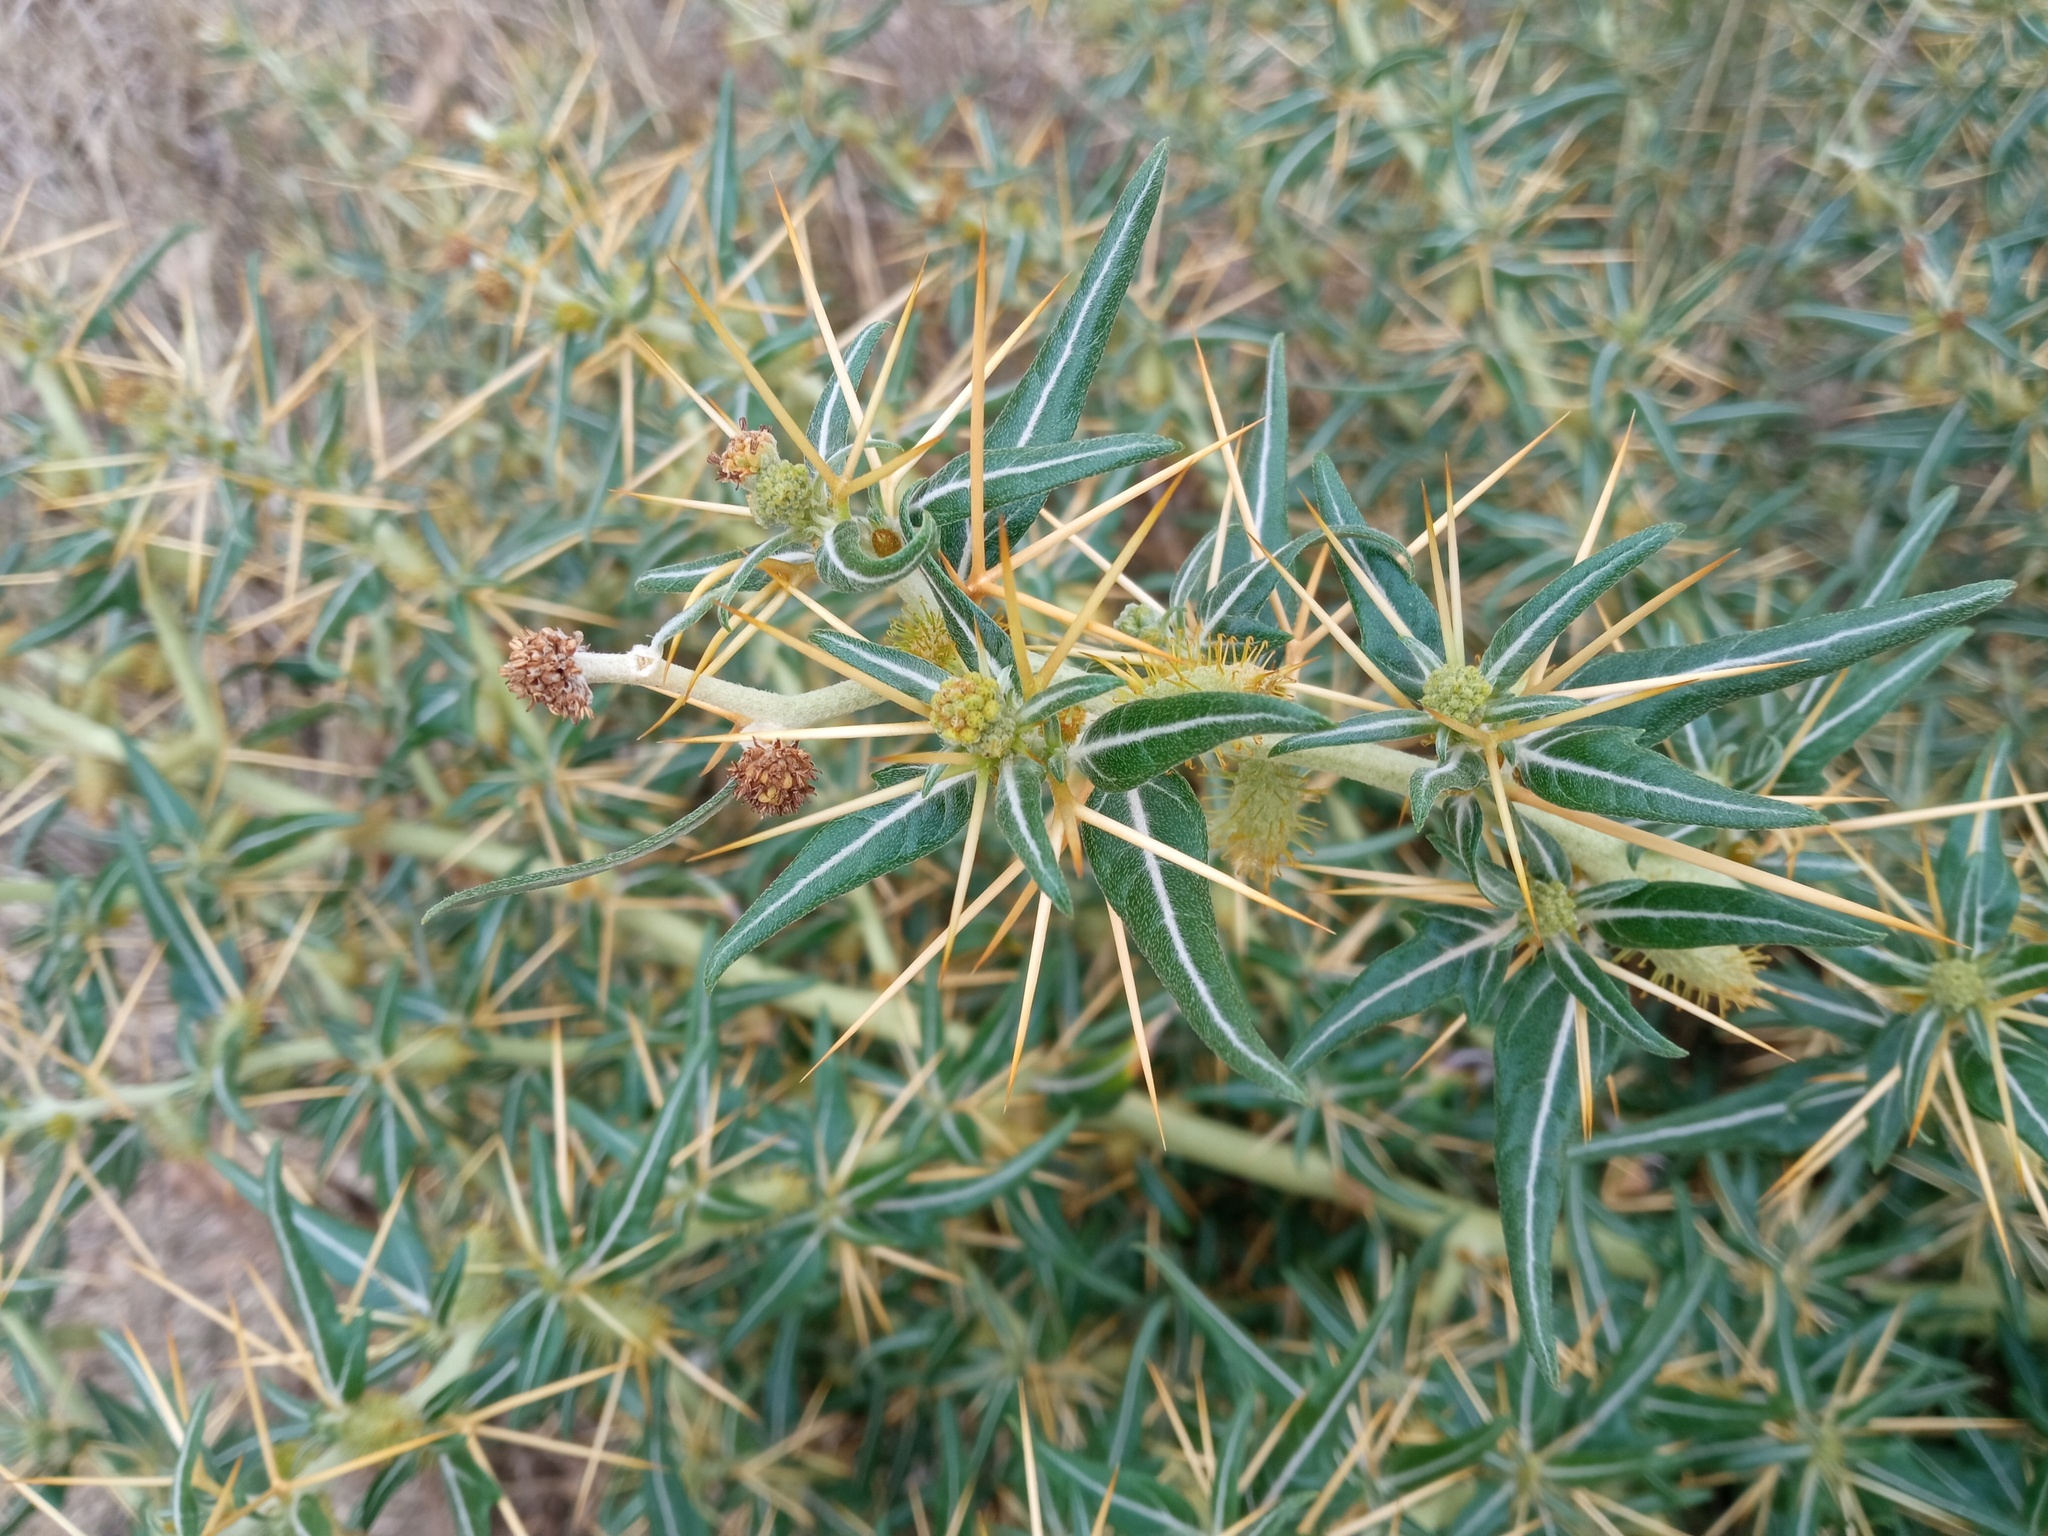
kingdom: Plantae
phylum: Tracheophyta
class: Magnoliopsida
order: Asterales
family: Asteraceae
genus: Xanthium
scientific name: Xanthium spinosum
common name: Spiny cocklebur
